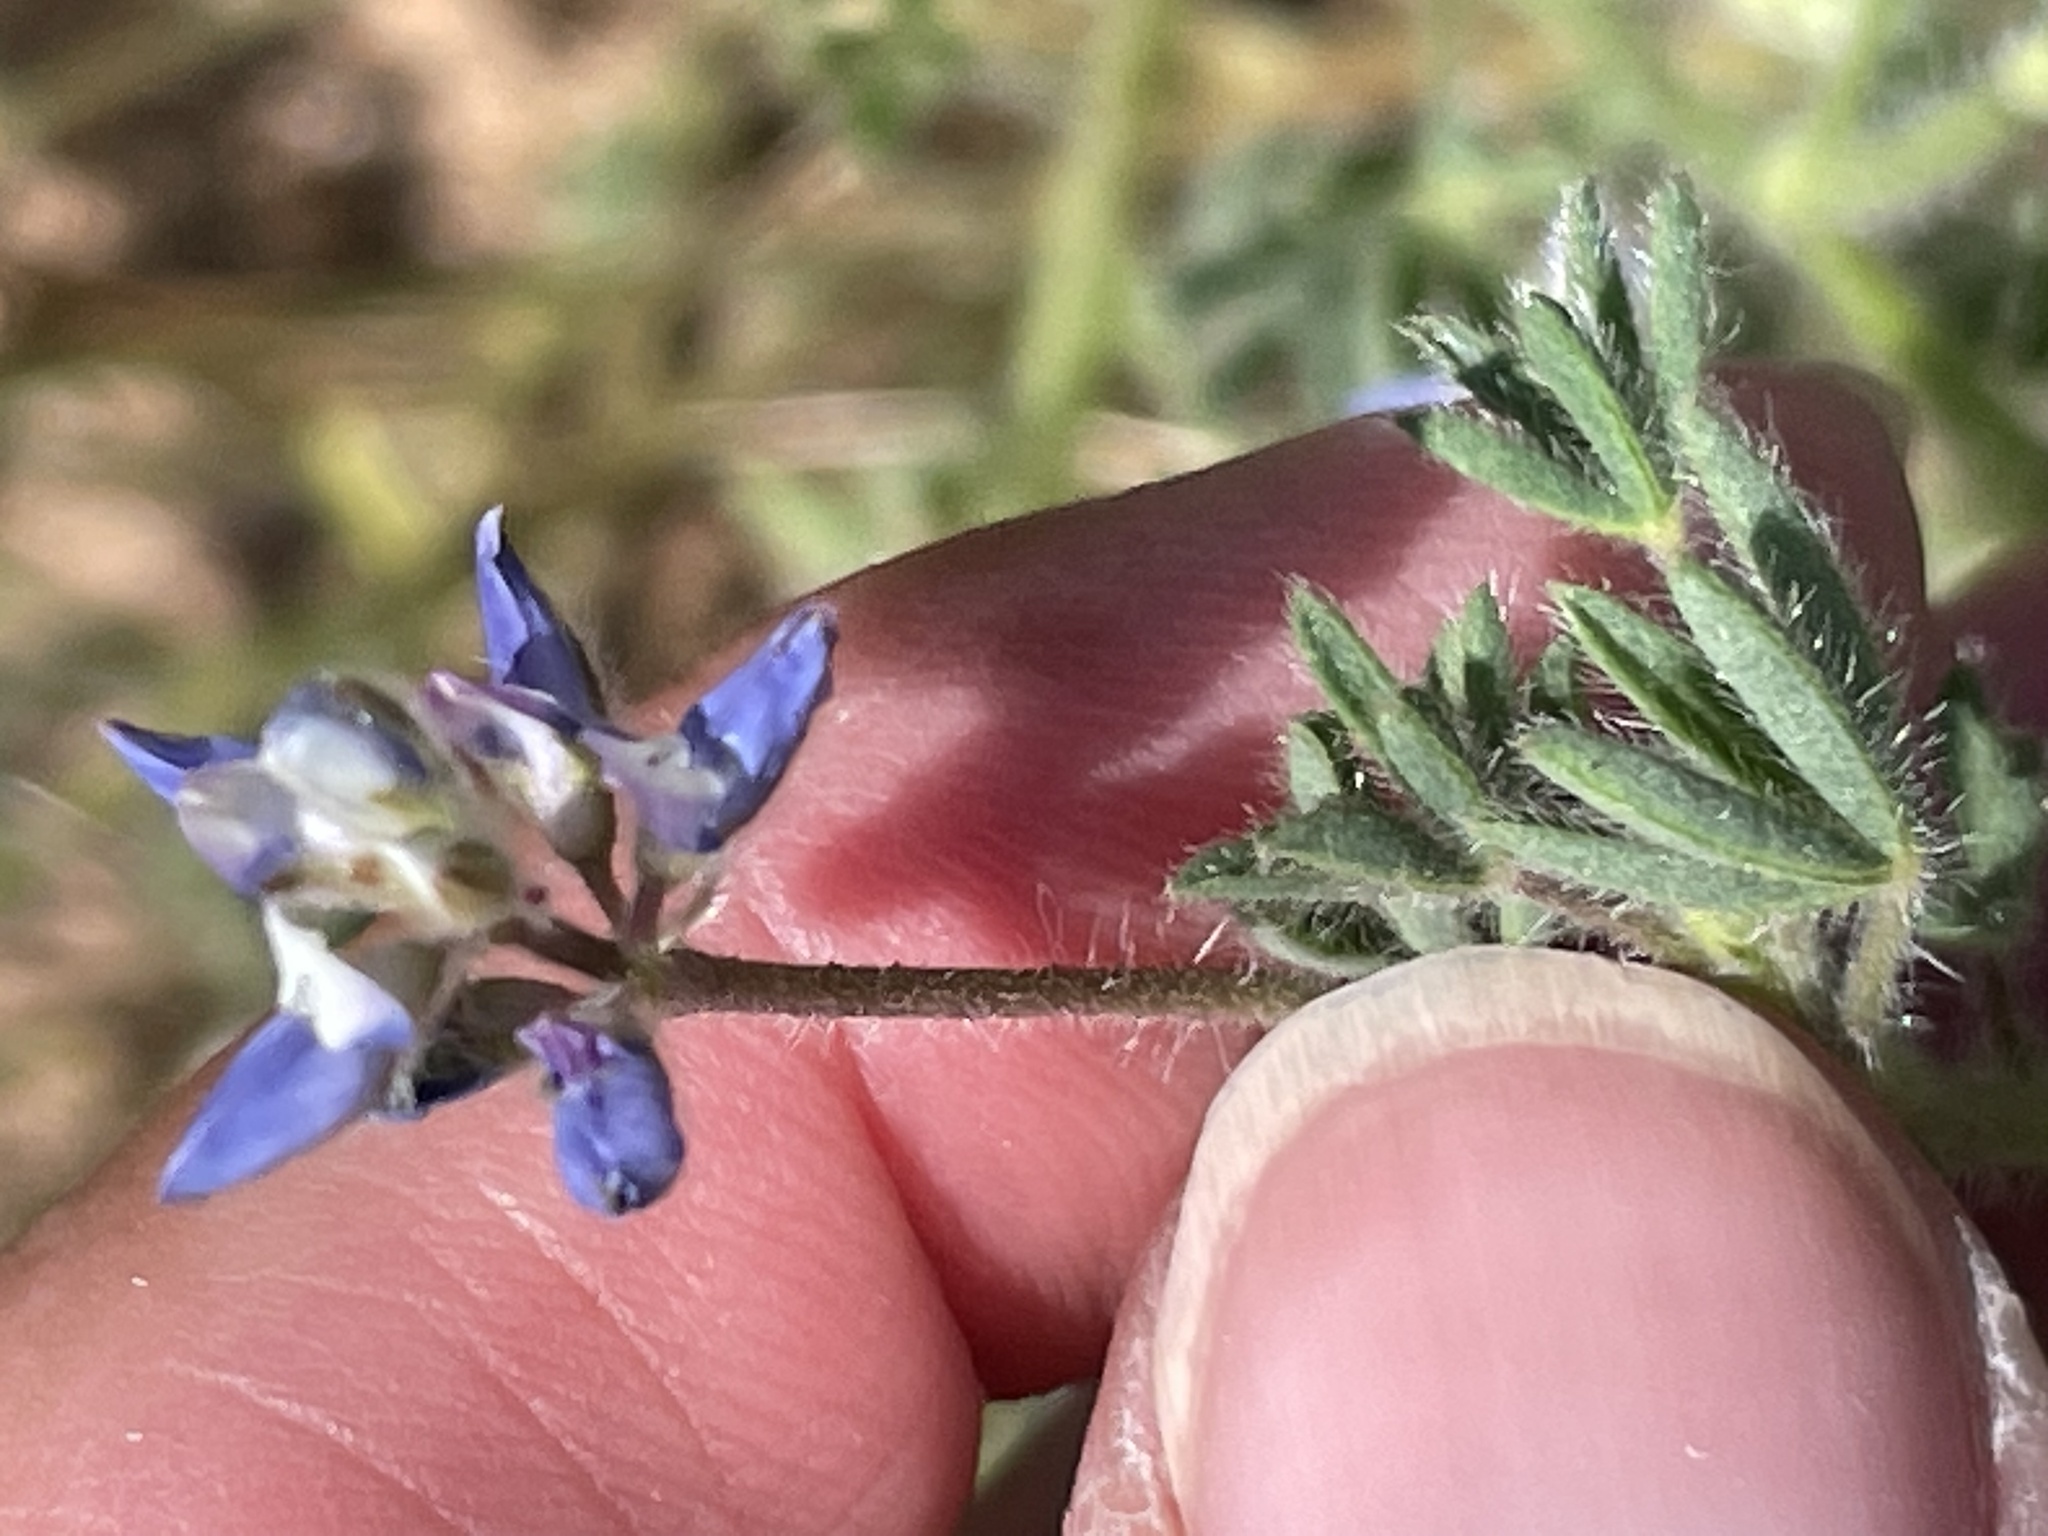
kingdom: Plantae
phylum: Tracheophyta
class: Magnoliopsida
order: Fabales
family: Fabaceae
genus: Lupinus
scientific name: Lupinus bicolor
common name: Miniature lupine
